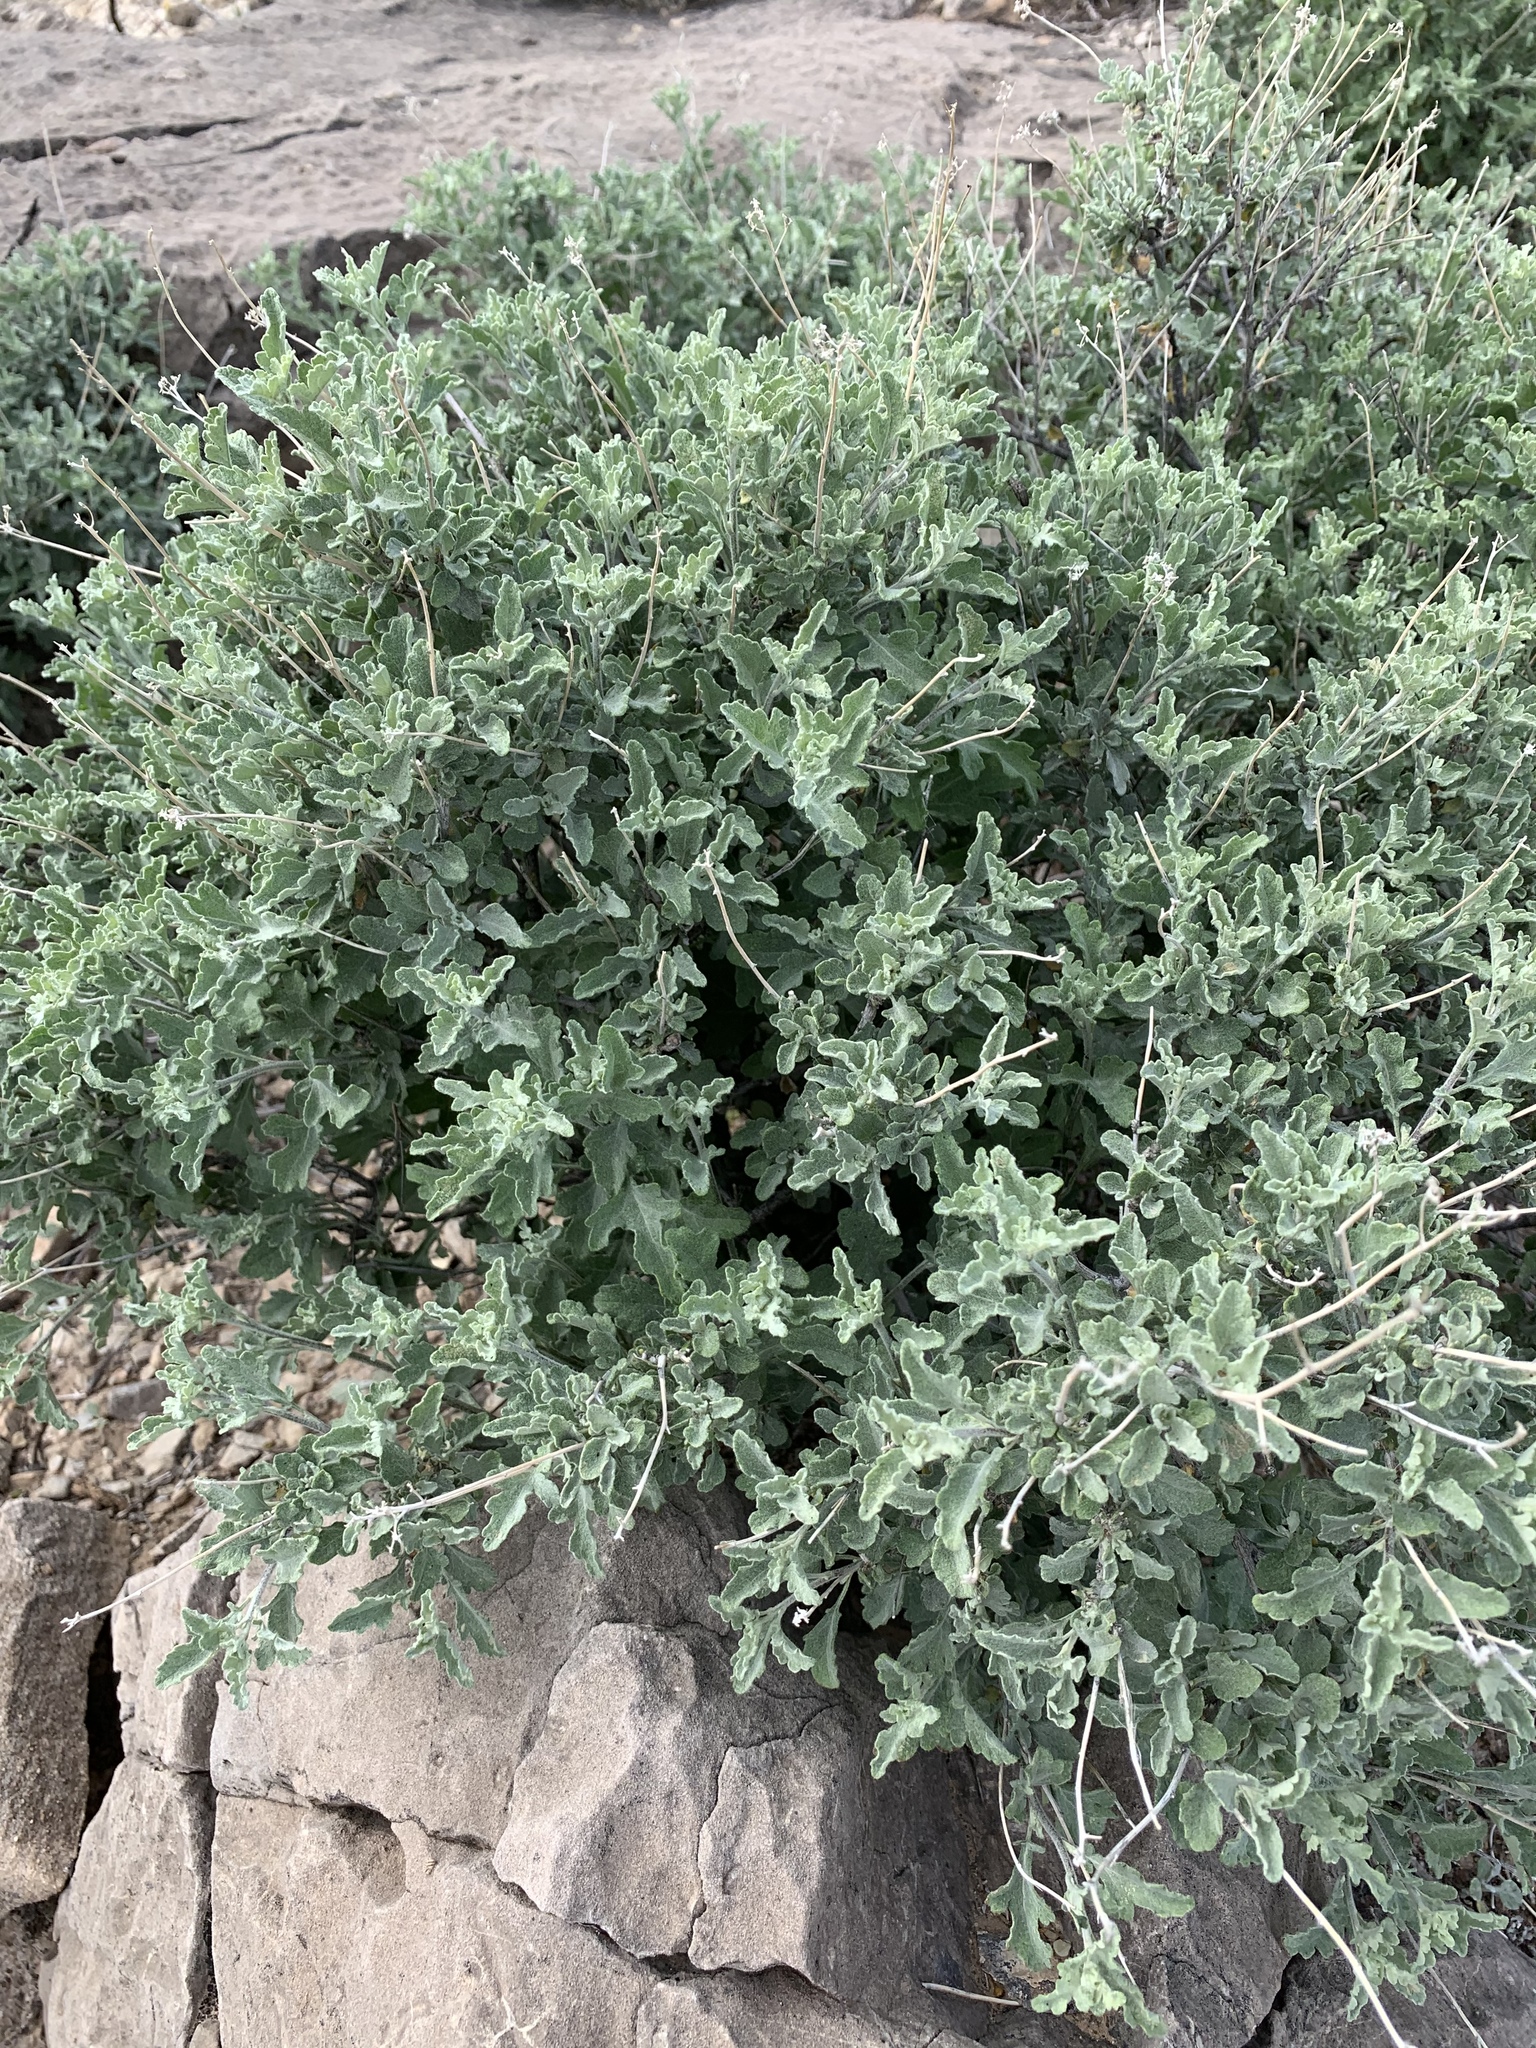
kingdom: Plantae
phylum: Tracheophyta
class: Magnoliopsida
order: Asterales
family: Asteraceae
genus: Parthenium
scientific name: Parthenium incanum
